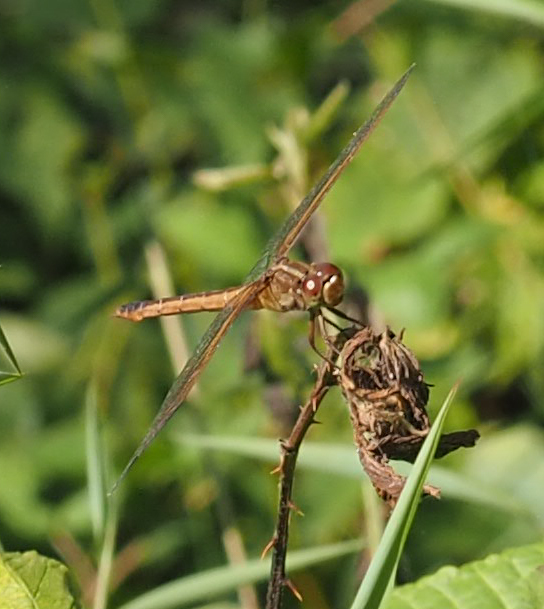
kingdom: Animalia
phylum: Arthropoda
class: Insecta
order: Odonata
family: Libellulidae
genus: Libellula
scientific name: Libellula needhami
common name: Needham's skimmer
